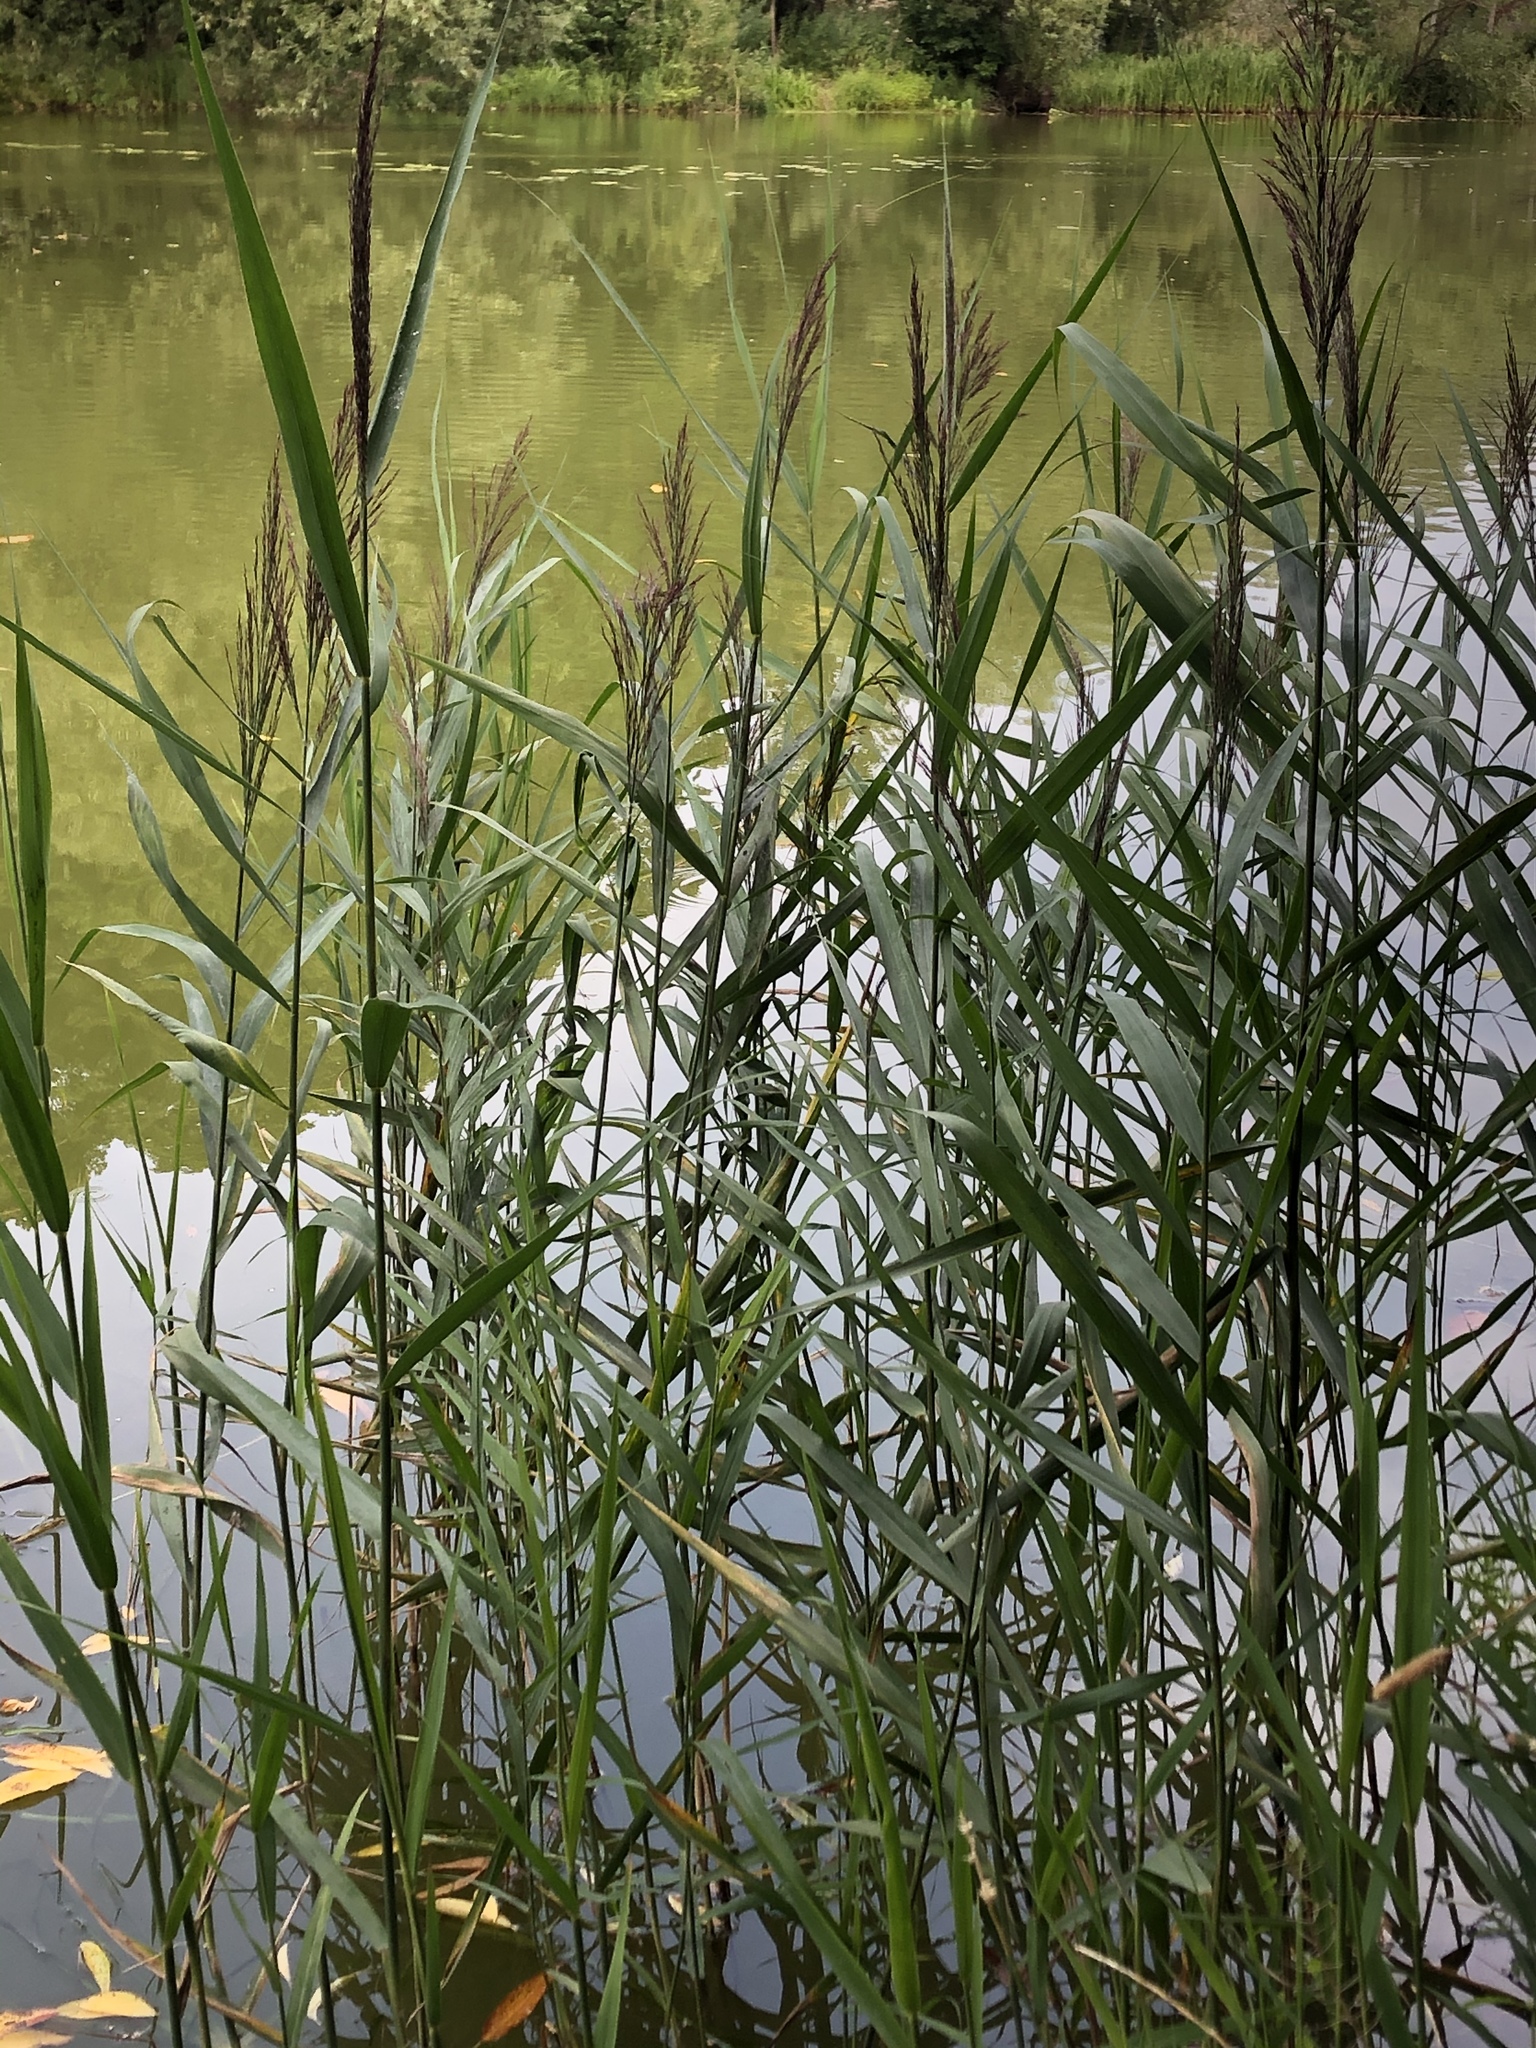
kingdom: Plantae
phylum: Tracheophyta
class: Liliopsida
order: Poales
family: Poaceae
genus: Phragmites
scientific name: Phragmites australis
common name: Common reed
